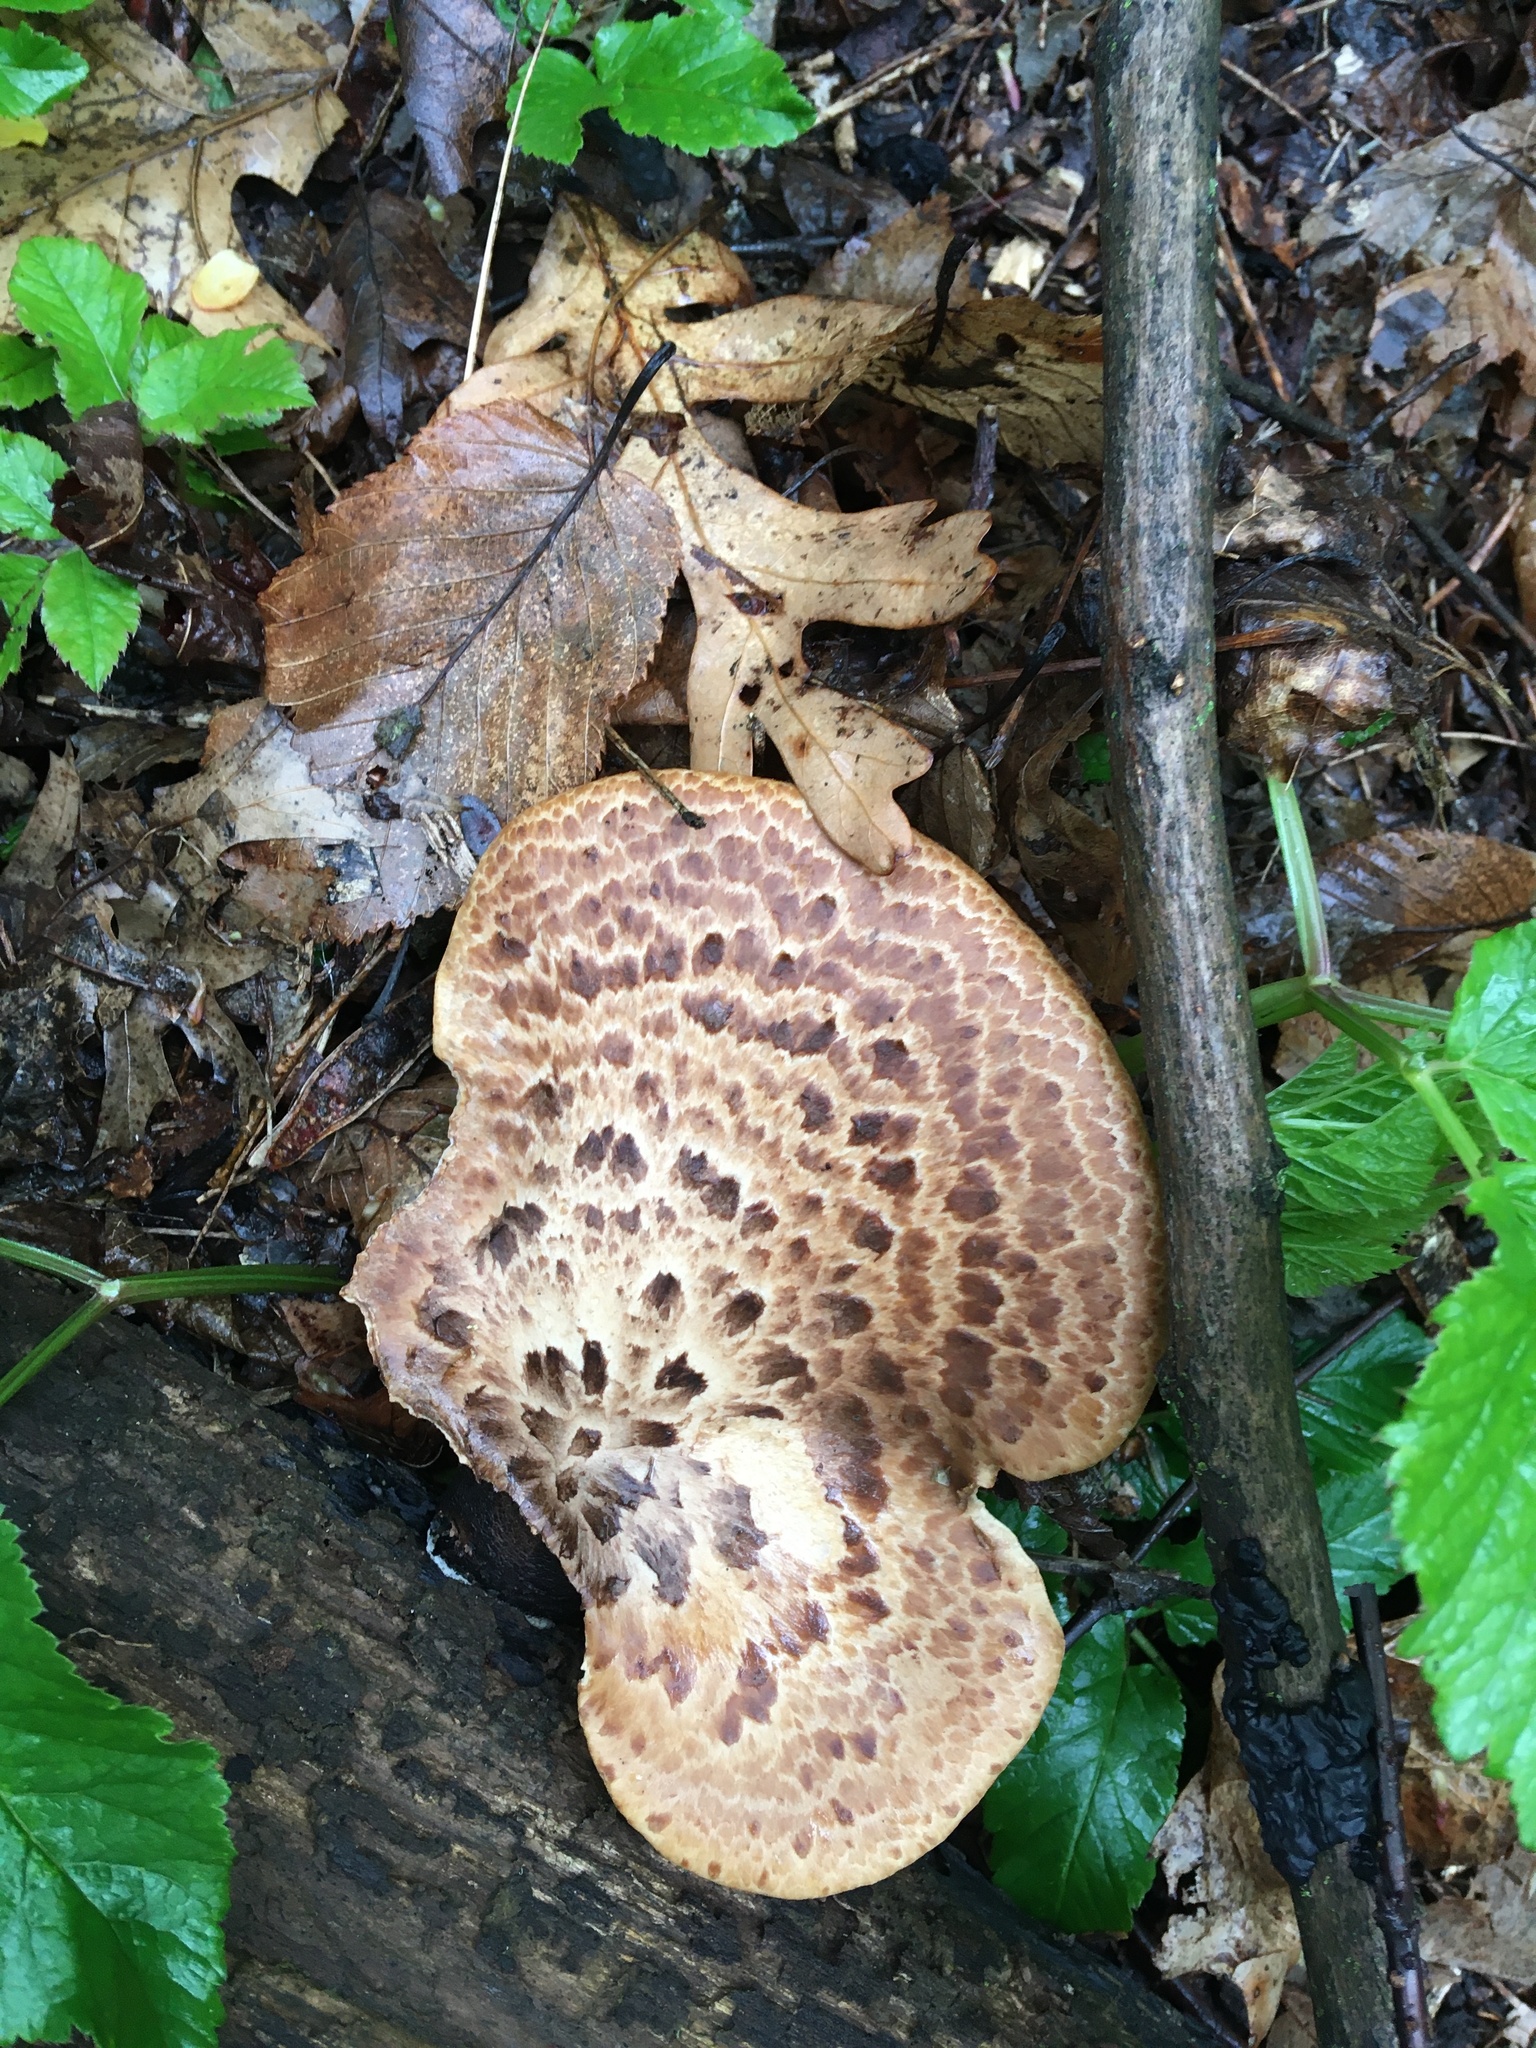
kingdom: Fungi
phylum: Basidiomycota
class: Agaricomycetes
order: Polyporales
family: Polyporaceae
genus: Cerioporus
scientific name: Cerioporus squamosus
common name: Dryad's saddle
